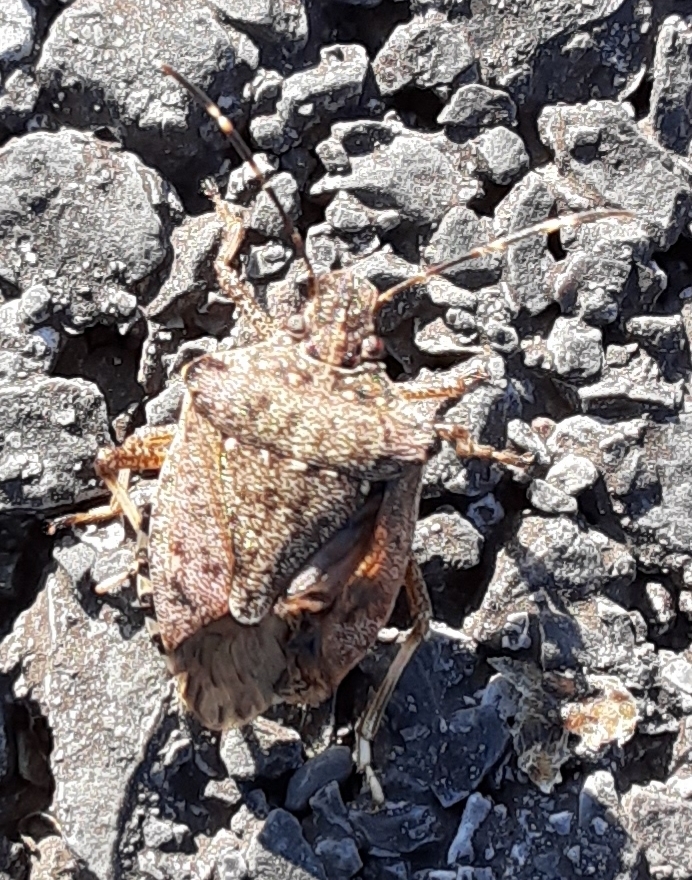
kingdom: Animalia
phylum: Arthropoda
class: Insecta
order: Hemiptera
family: Pentatomidae
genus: Halyomorpha
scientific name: Halyomorpha halys
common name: Brown marmorated stink bug
